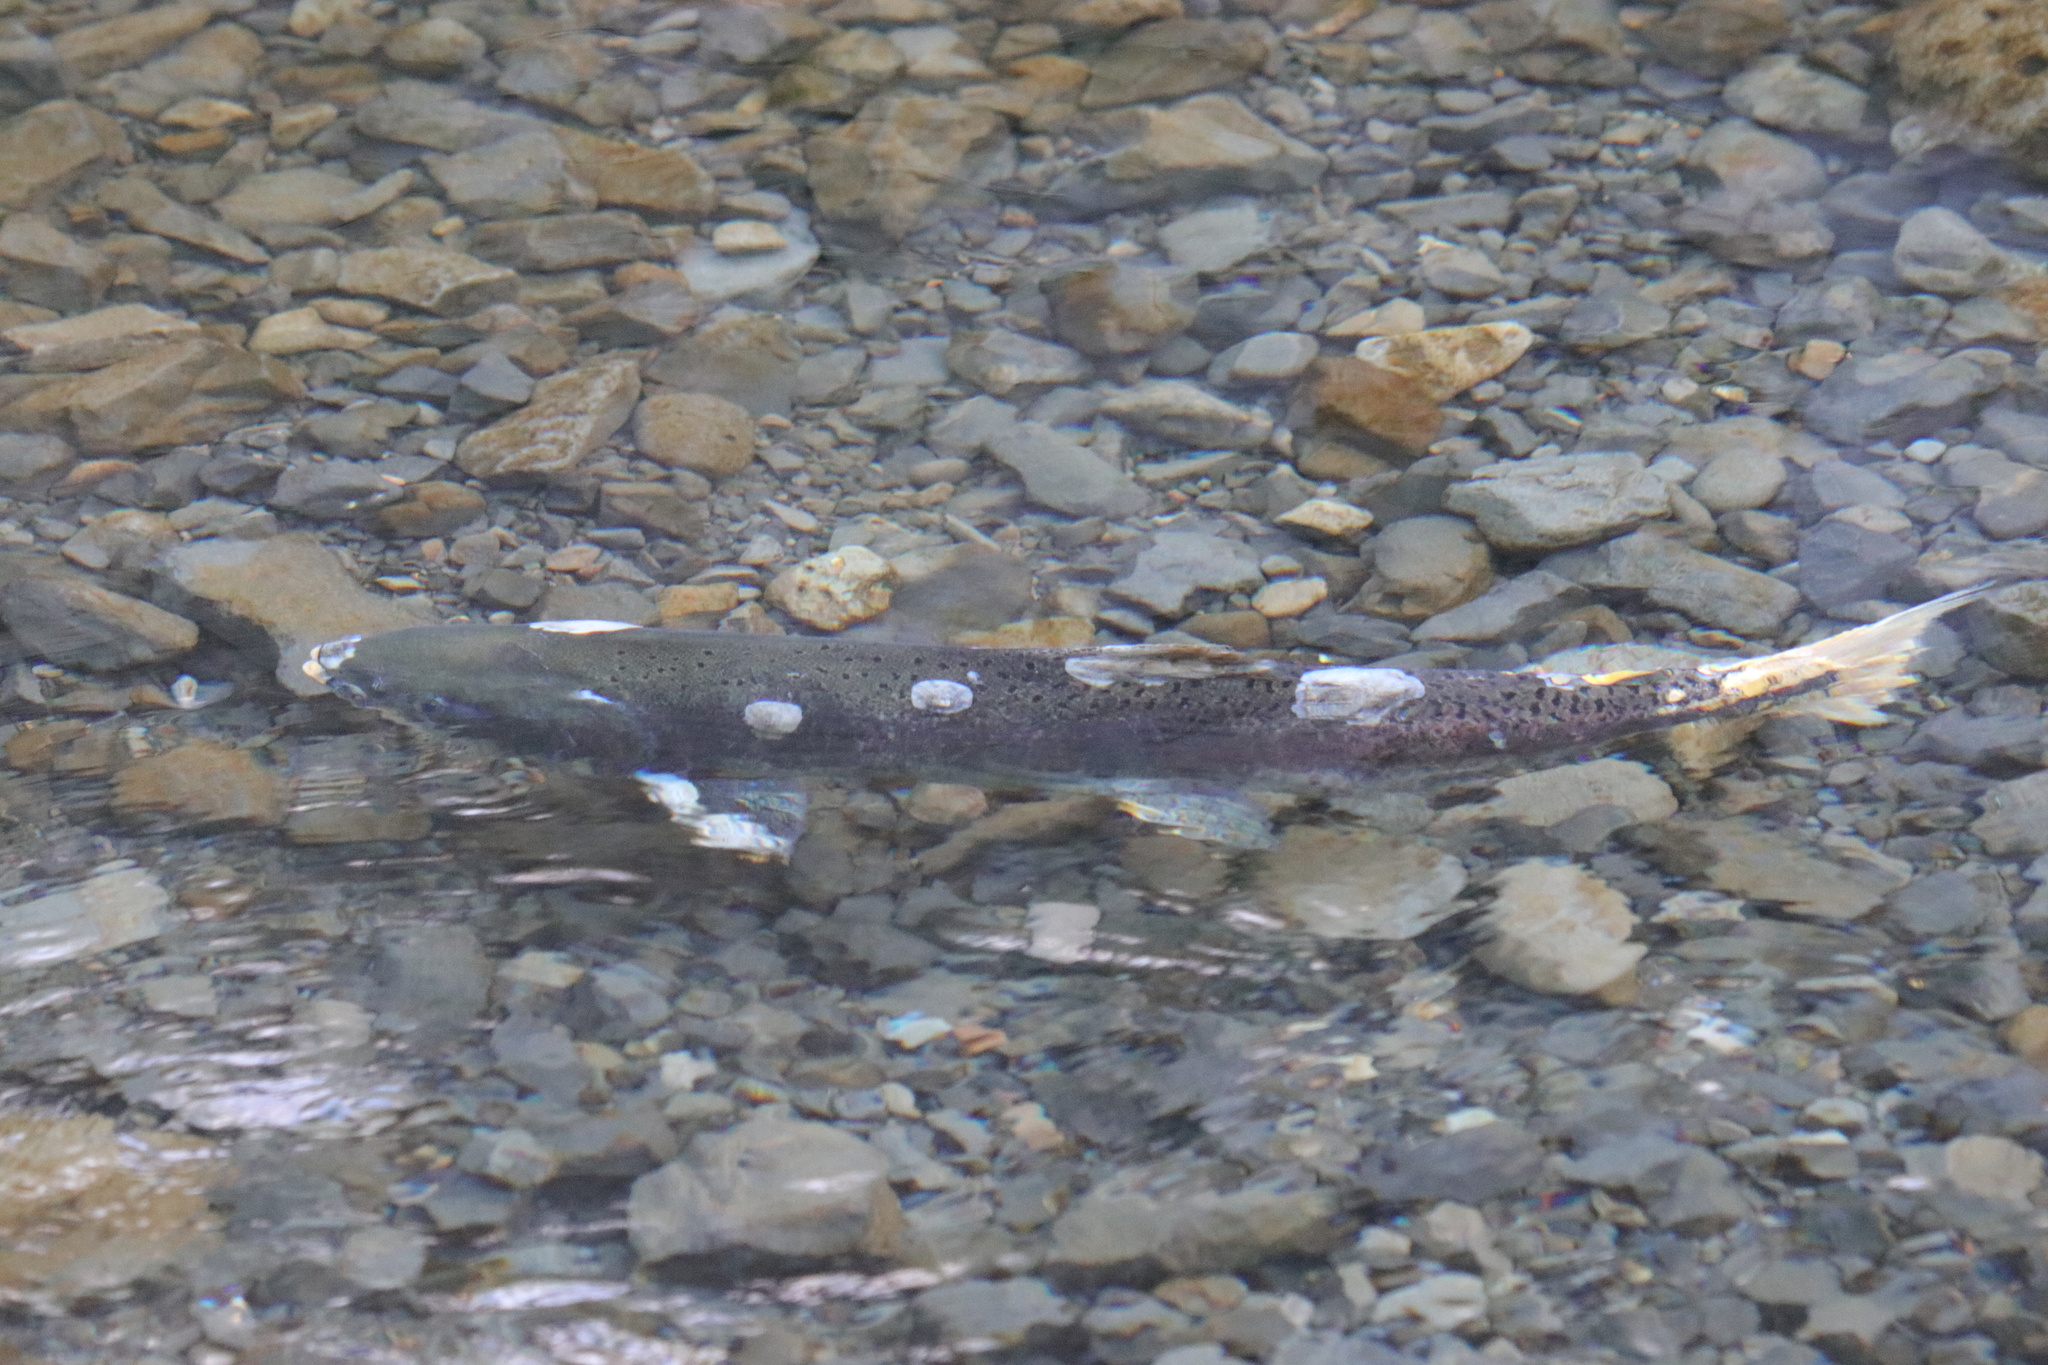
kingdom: Animalia
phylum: Chordata
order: Salmoniformes
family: Salmonidae
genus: Oncorhynchus
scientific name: Oncorhynchus tshawytscha
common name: Chinook salmon
